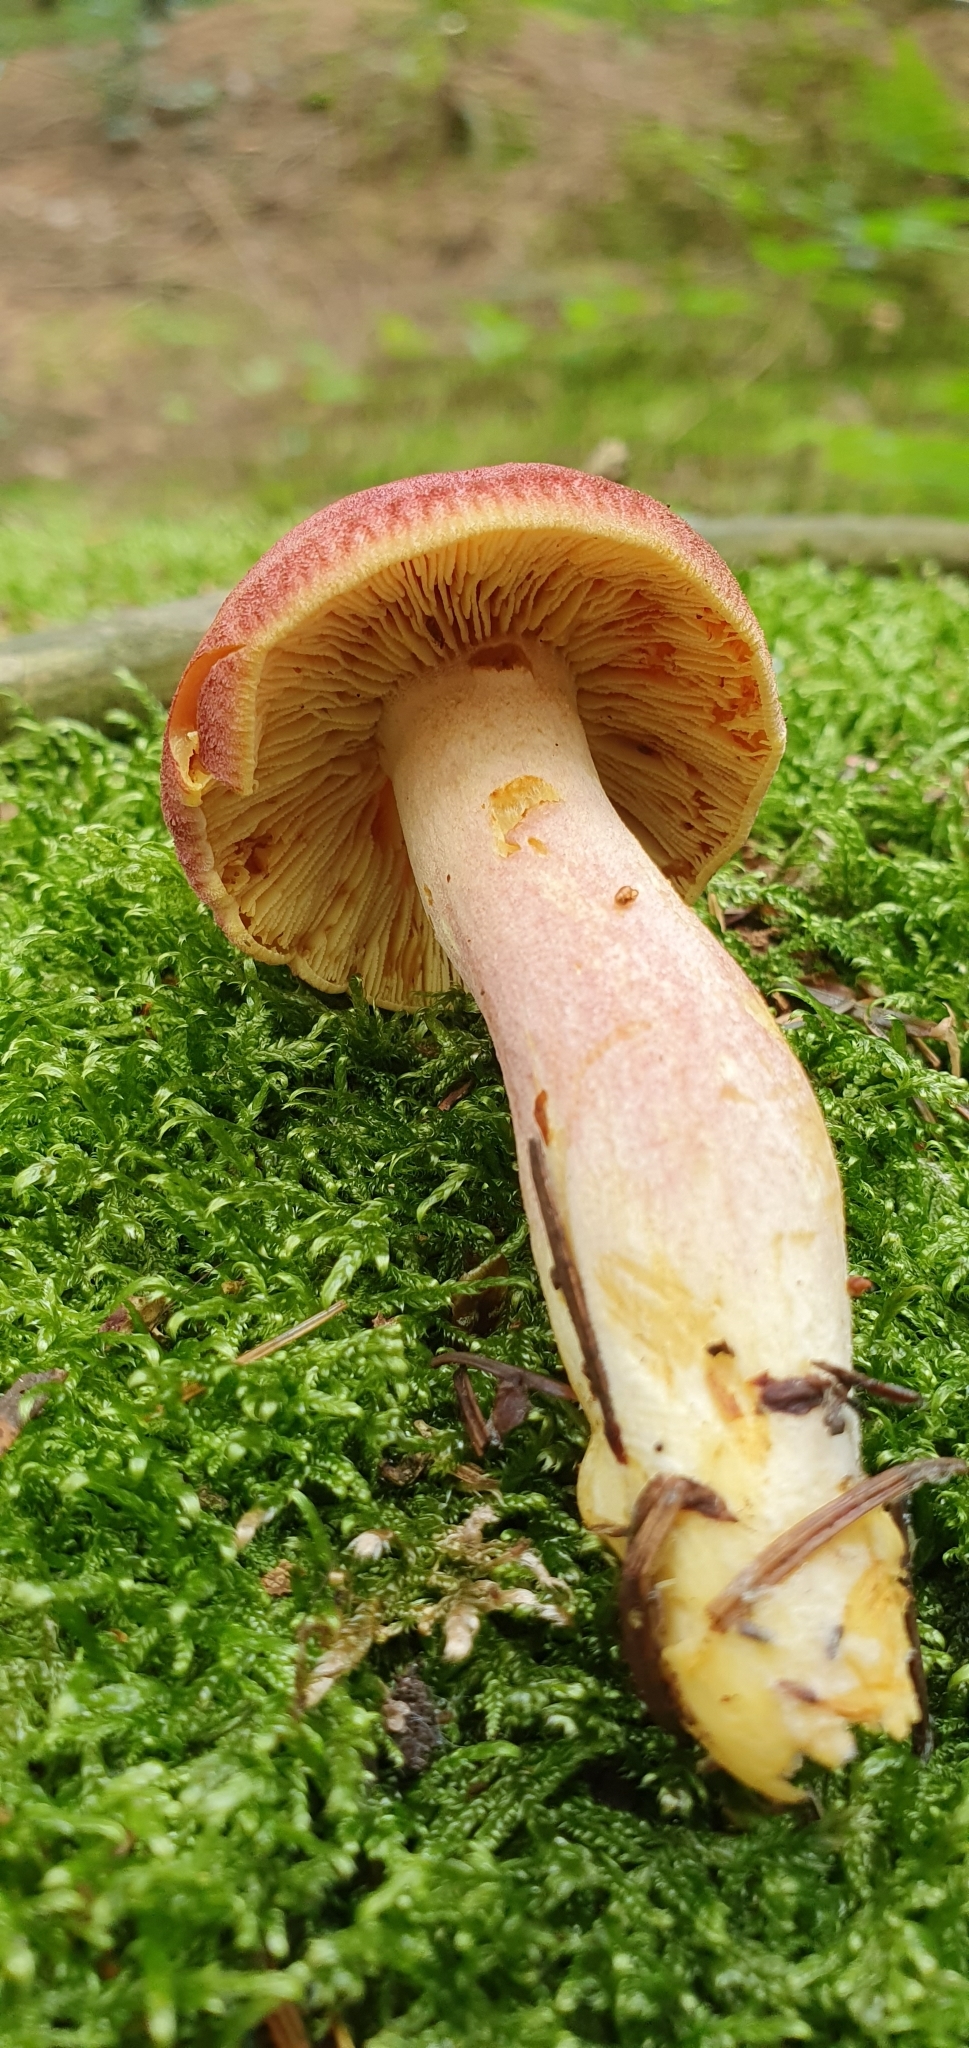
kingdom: Fungi
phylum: Basidiomycota
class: Agaricomycetes
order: Agaricales
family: Tricholomataceae
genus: Tricholomopsis
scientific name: Tricholomopsis rutilans
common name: Plums and custard
